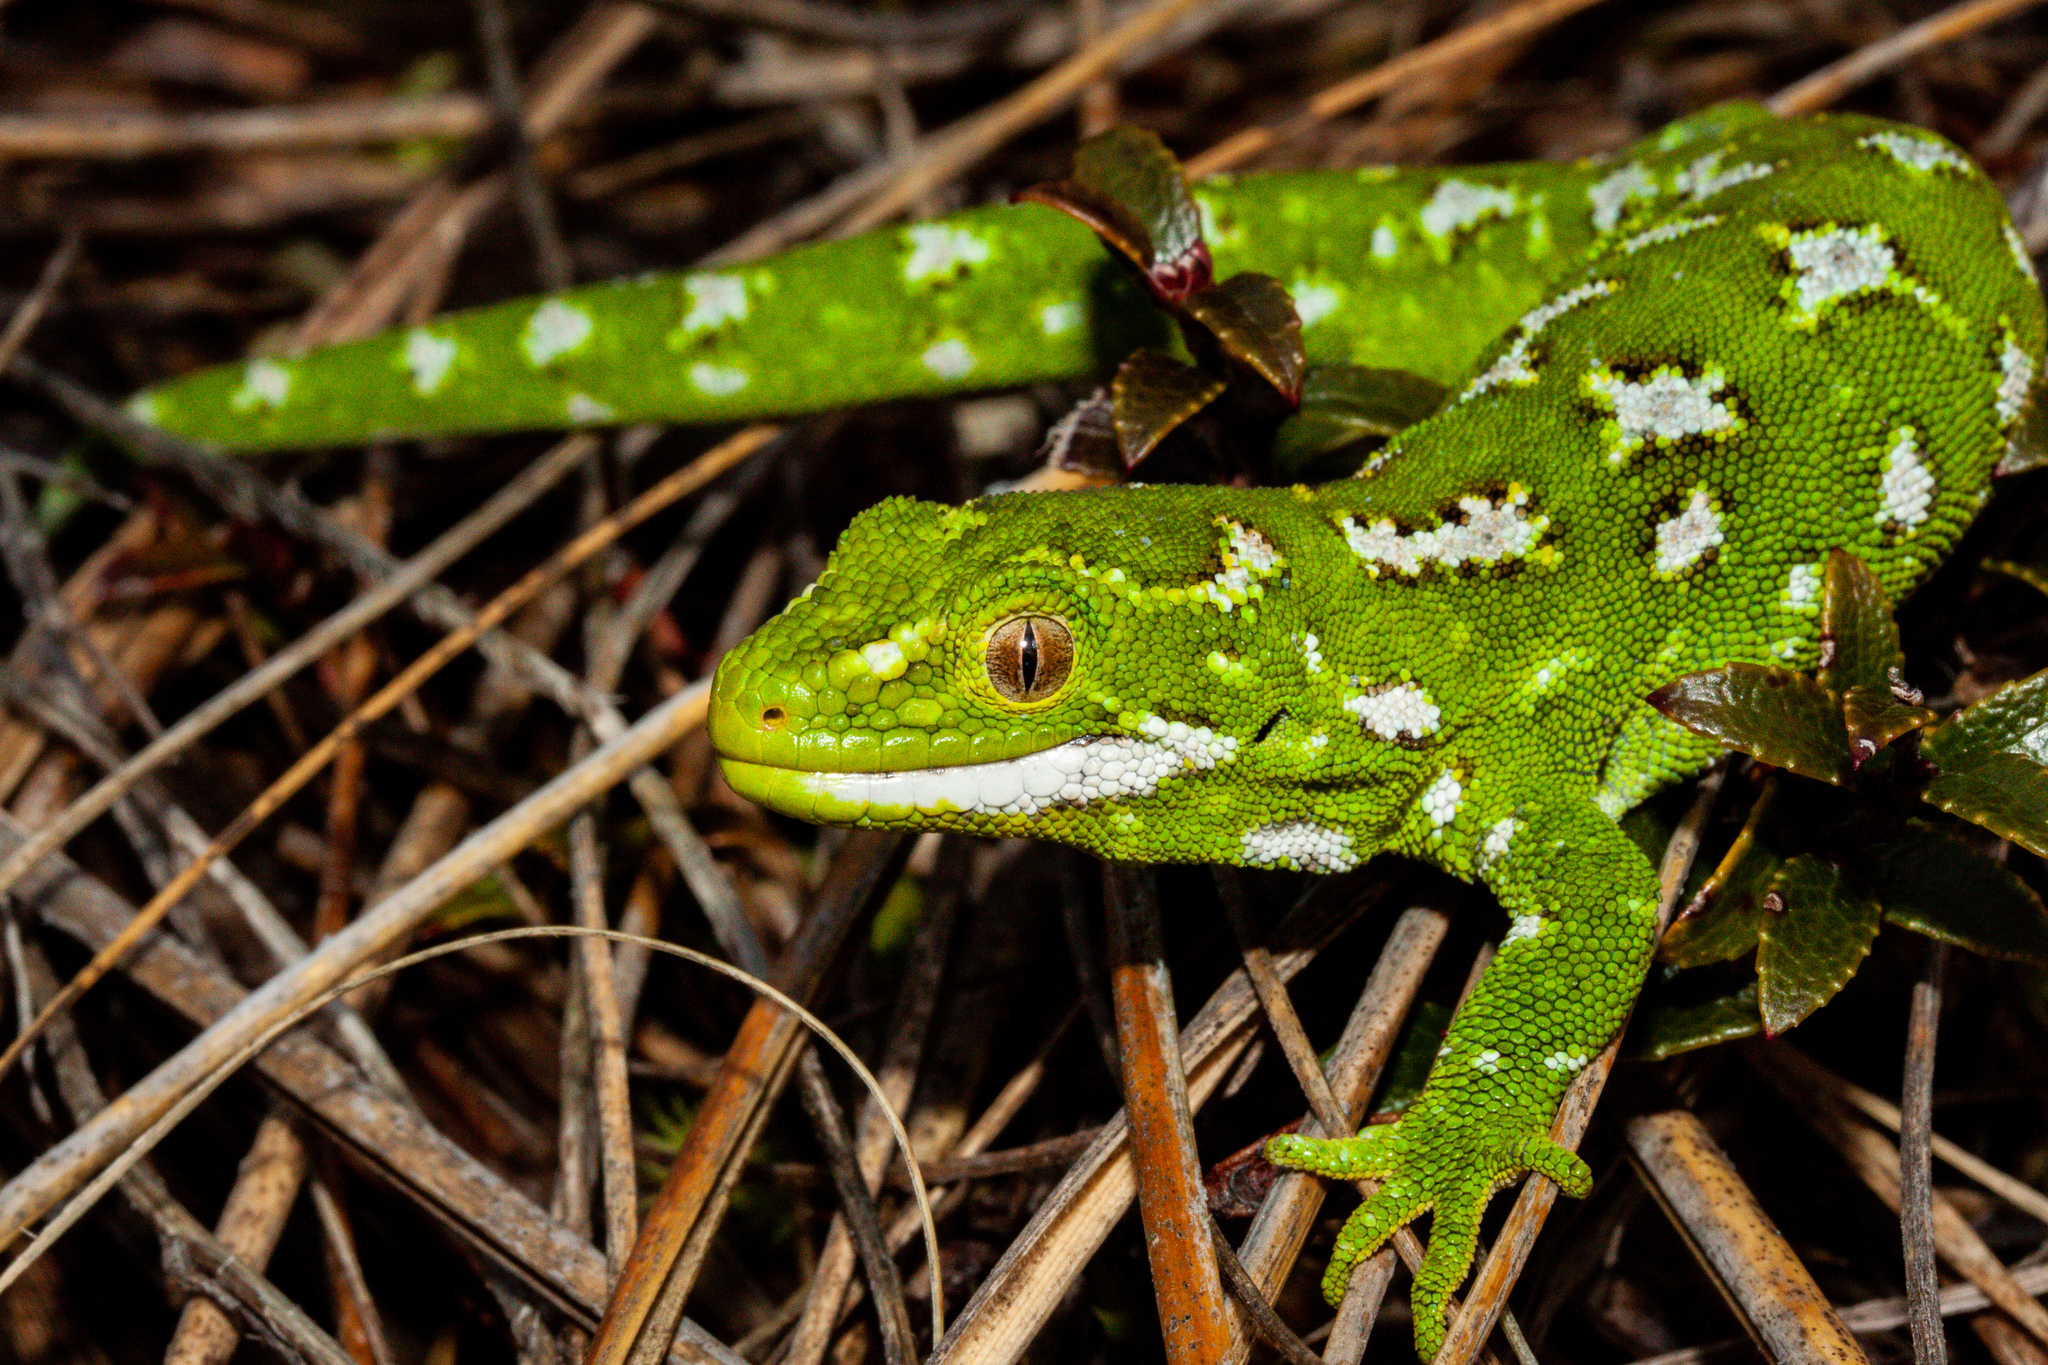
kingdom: Animalia
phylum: Chordata
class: Squamata
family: Diplodactylidae
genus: Naultinus
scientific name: Naultinus gemmeus
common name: Jewelled gecko
